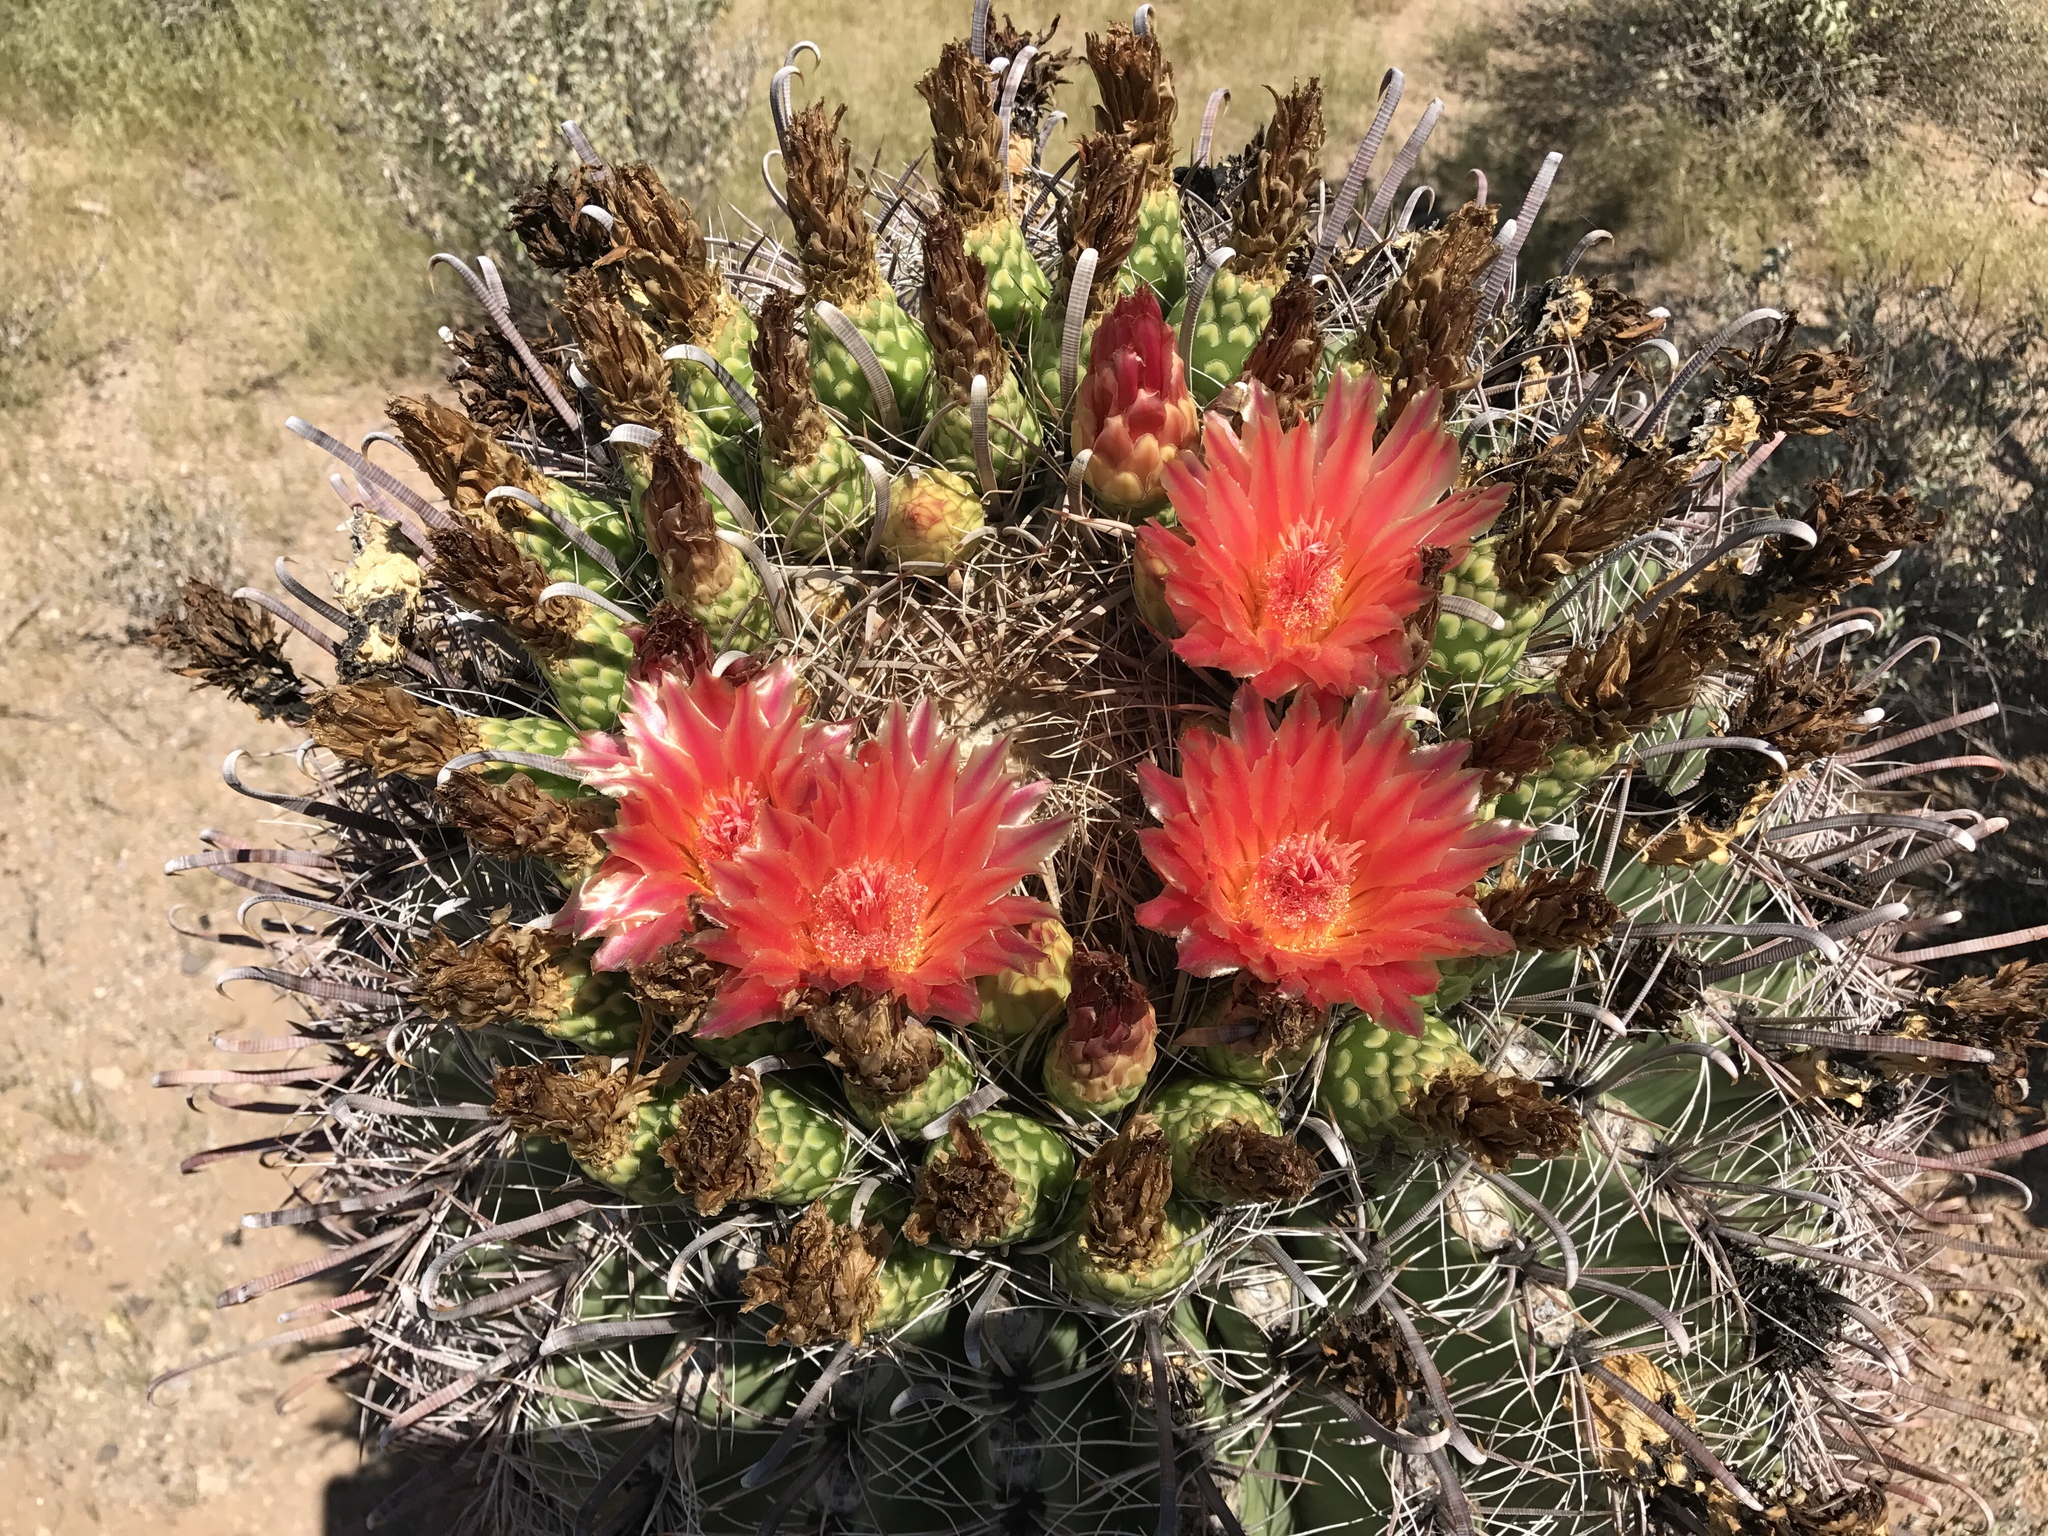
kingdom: Plantae
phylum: Tracheophyta
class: Magnoliopsida
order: Caryophyllales
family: Cactaceae
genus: Ferocactus
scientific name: Ferocactus wislizeni
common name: Candy barrel cactus
